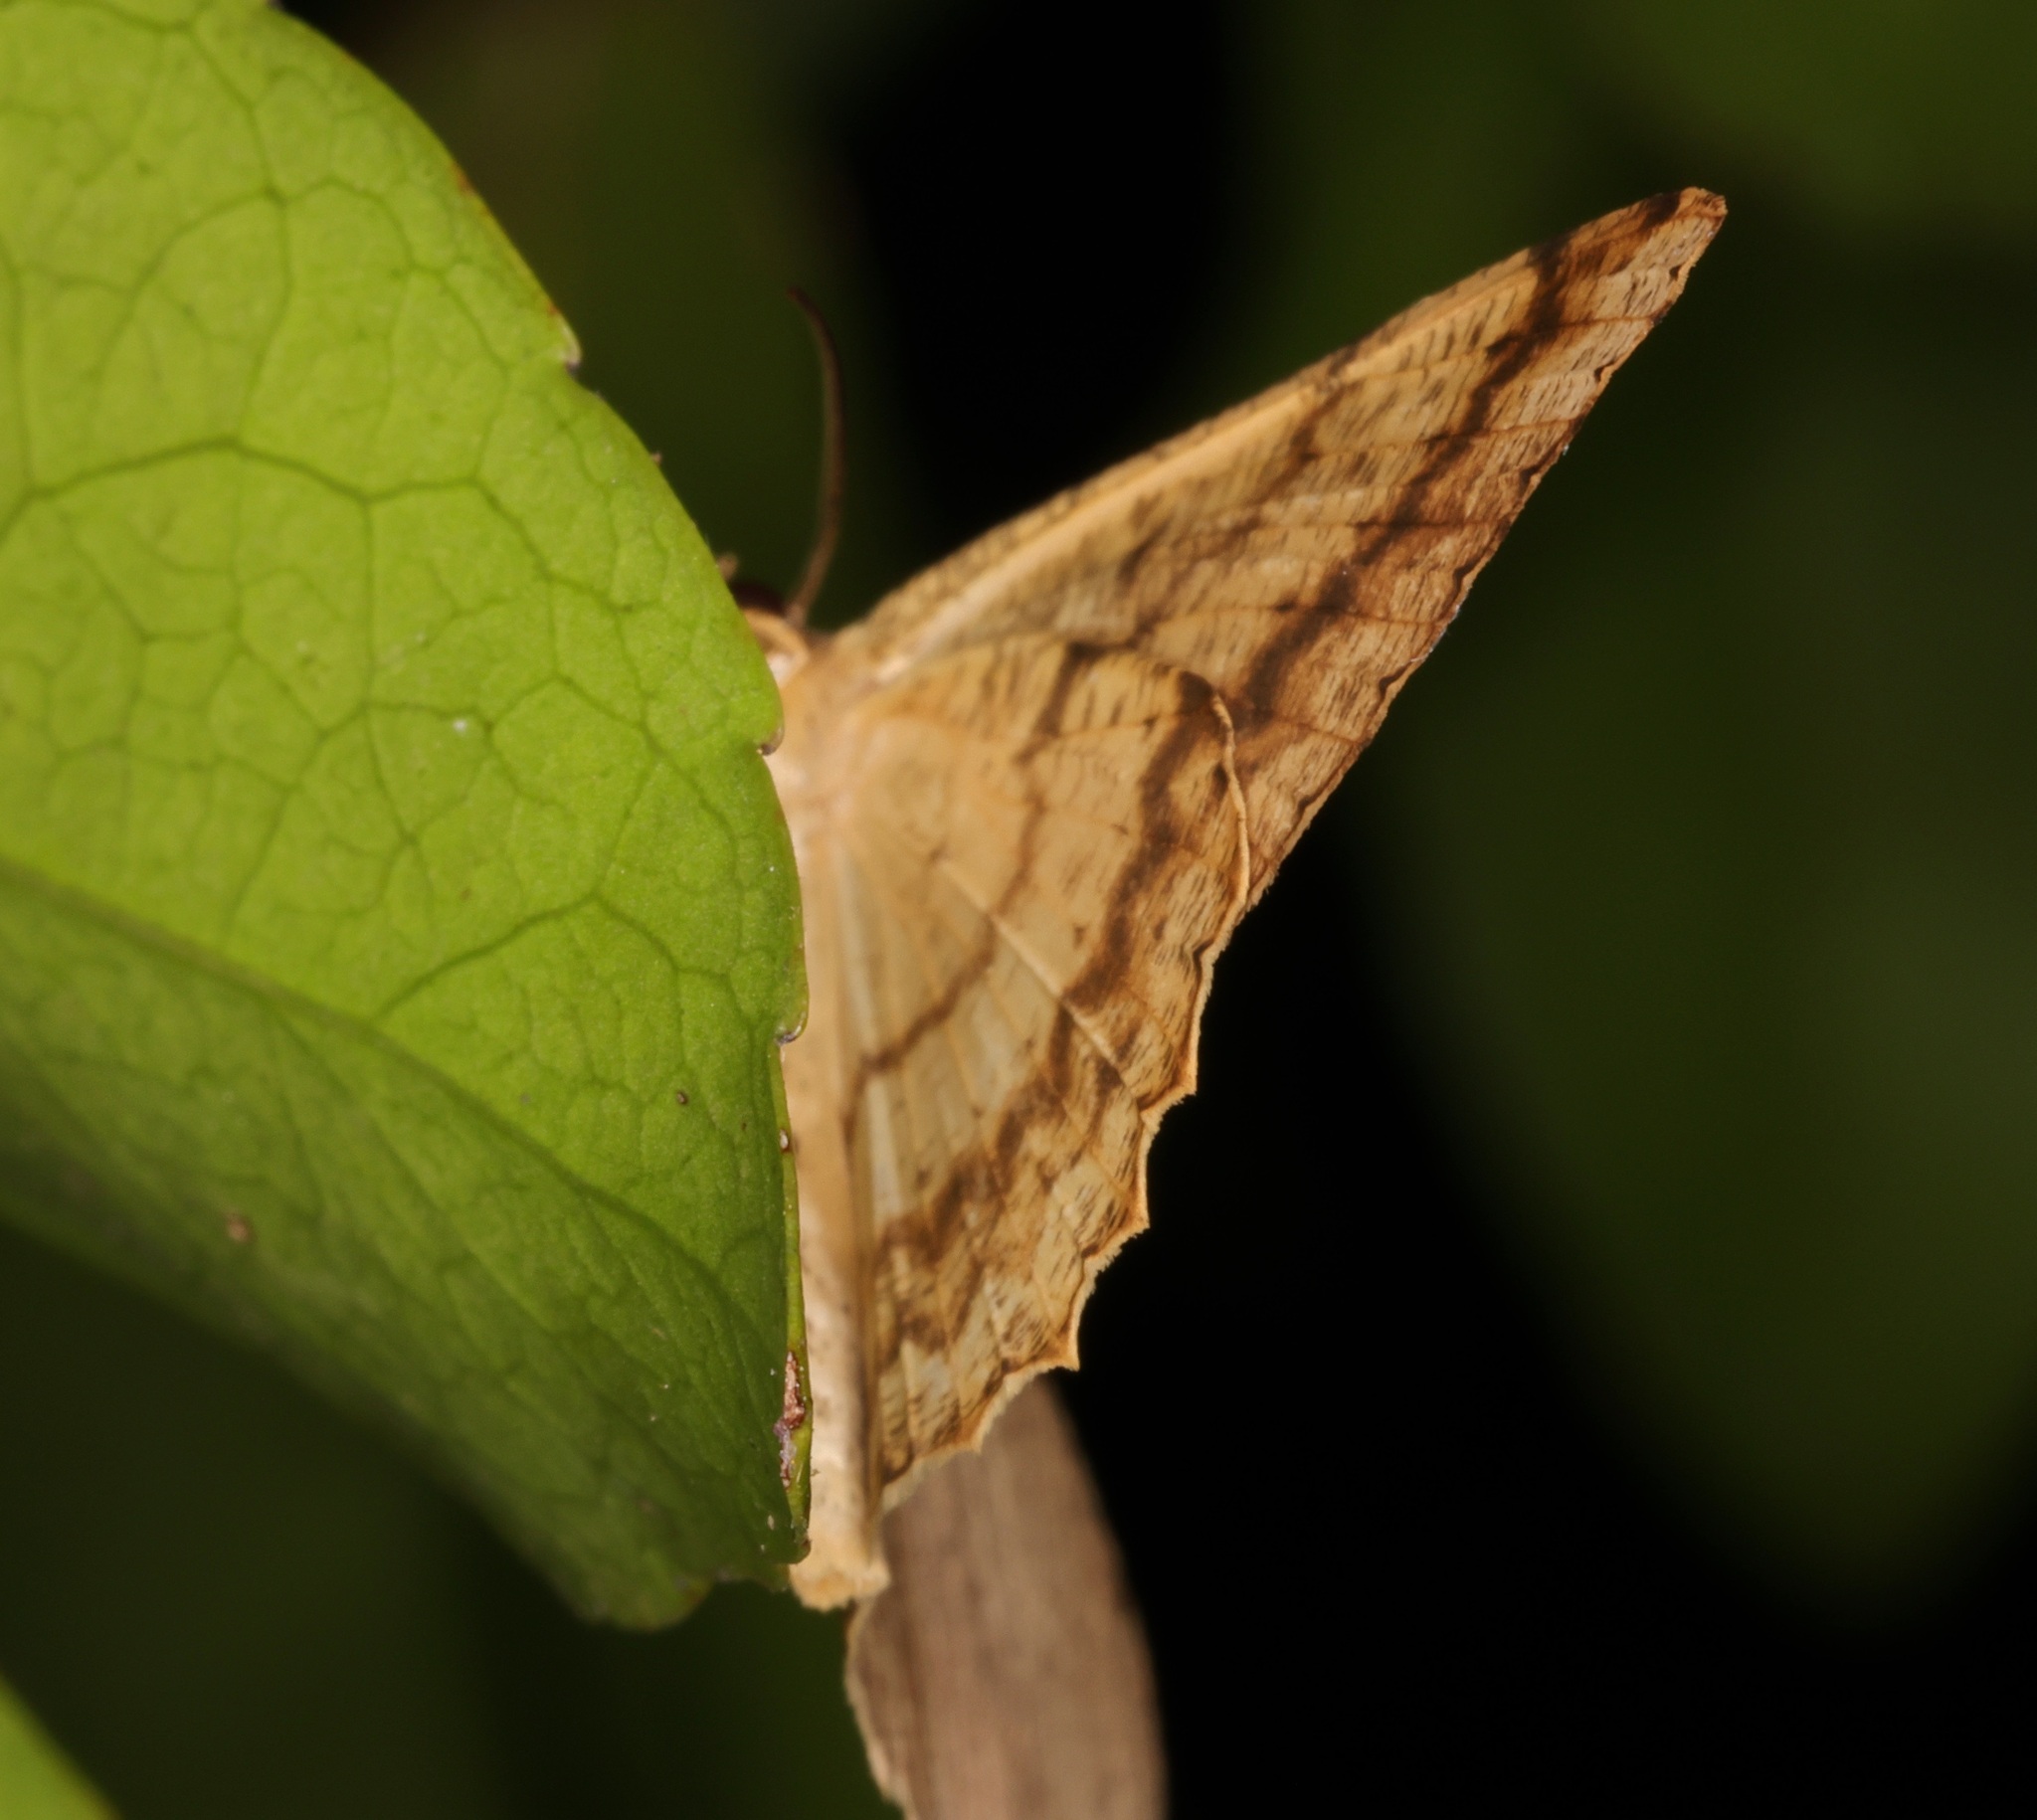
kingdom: Animalia
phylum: Arthropoda
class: Insecta
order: Lepidoptera
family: Geometridae
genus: Luxiaria
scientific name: Luxiaria mitorrhaphes
